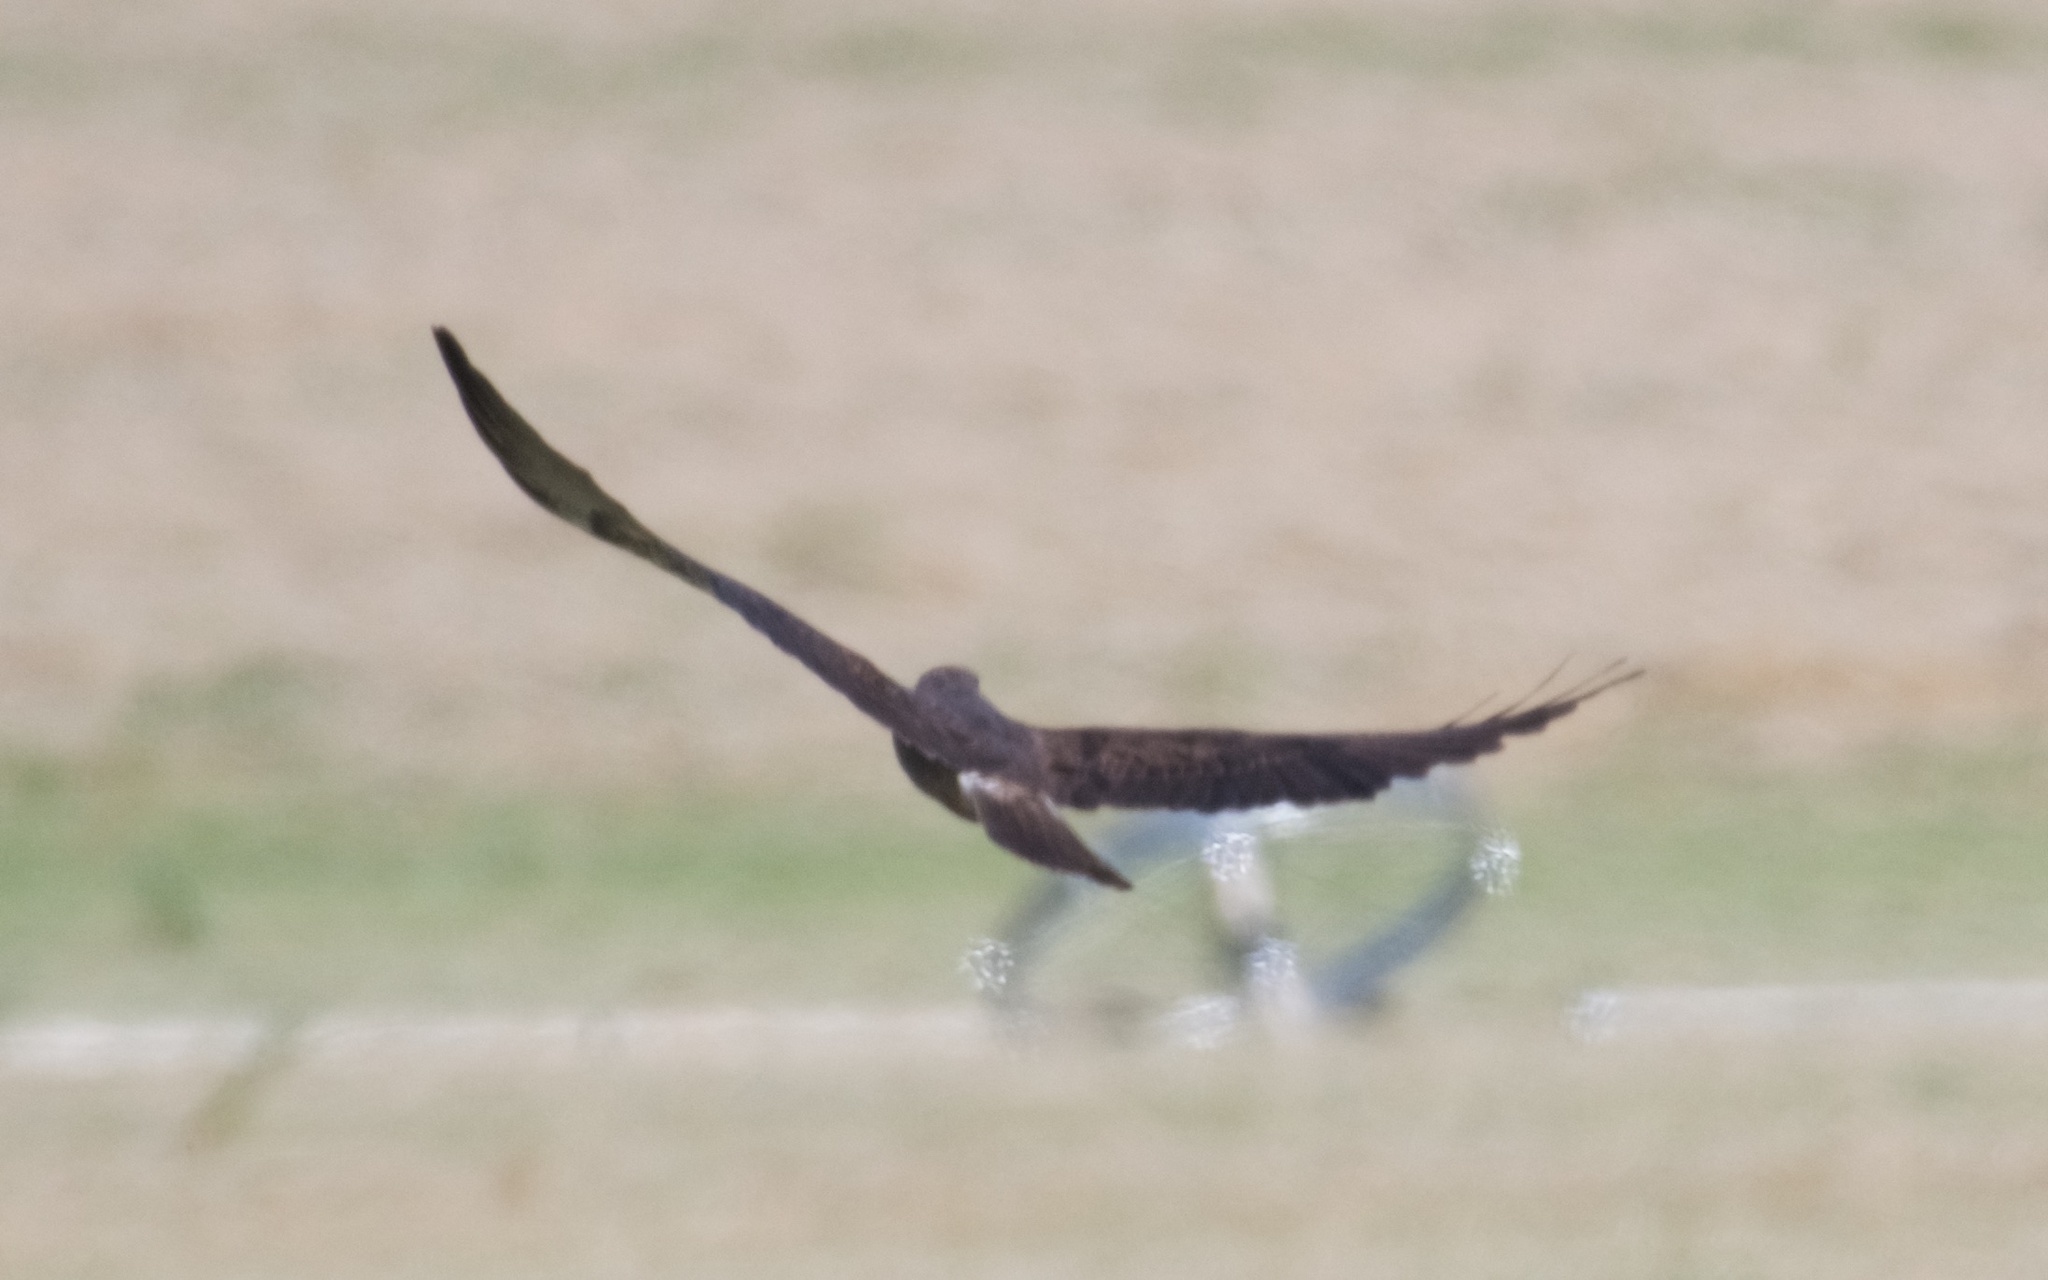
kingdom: Animalia
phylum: Chordata
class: Aves
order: Accipitriformes
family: Accipitridae
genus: Buteo
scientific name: Buteo swainsoni
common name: Swainson's hawk
